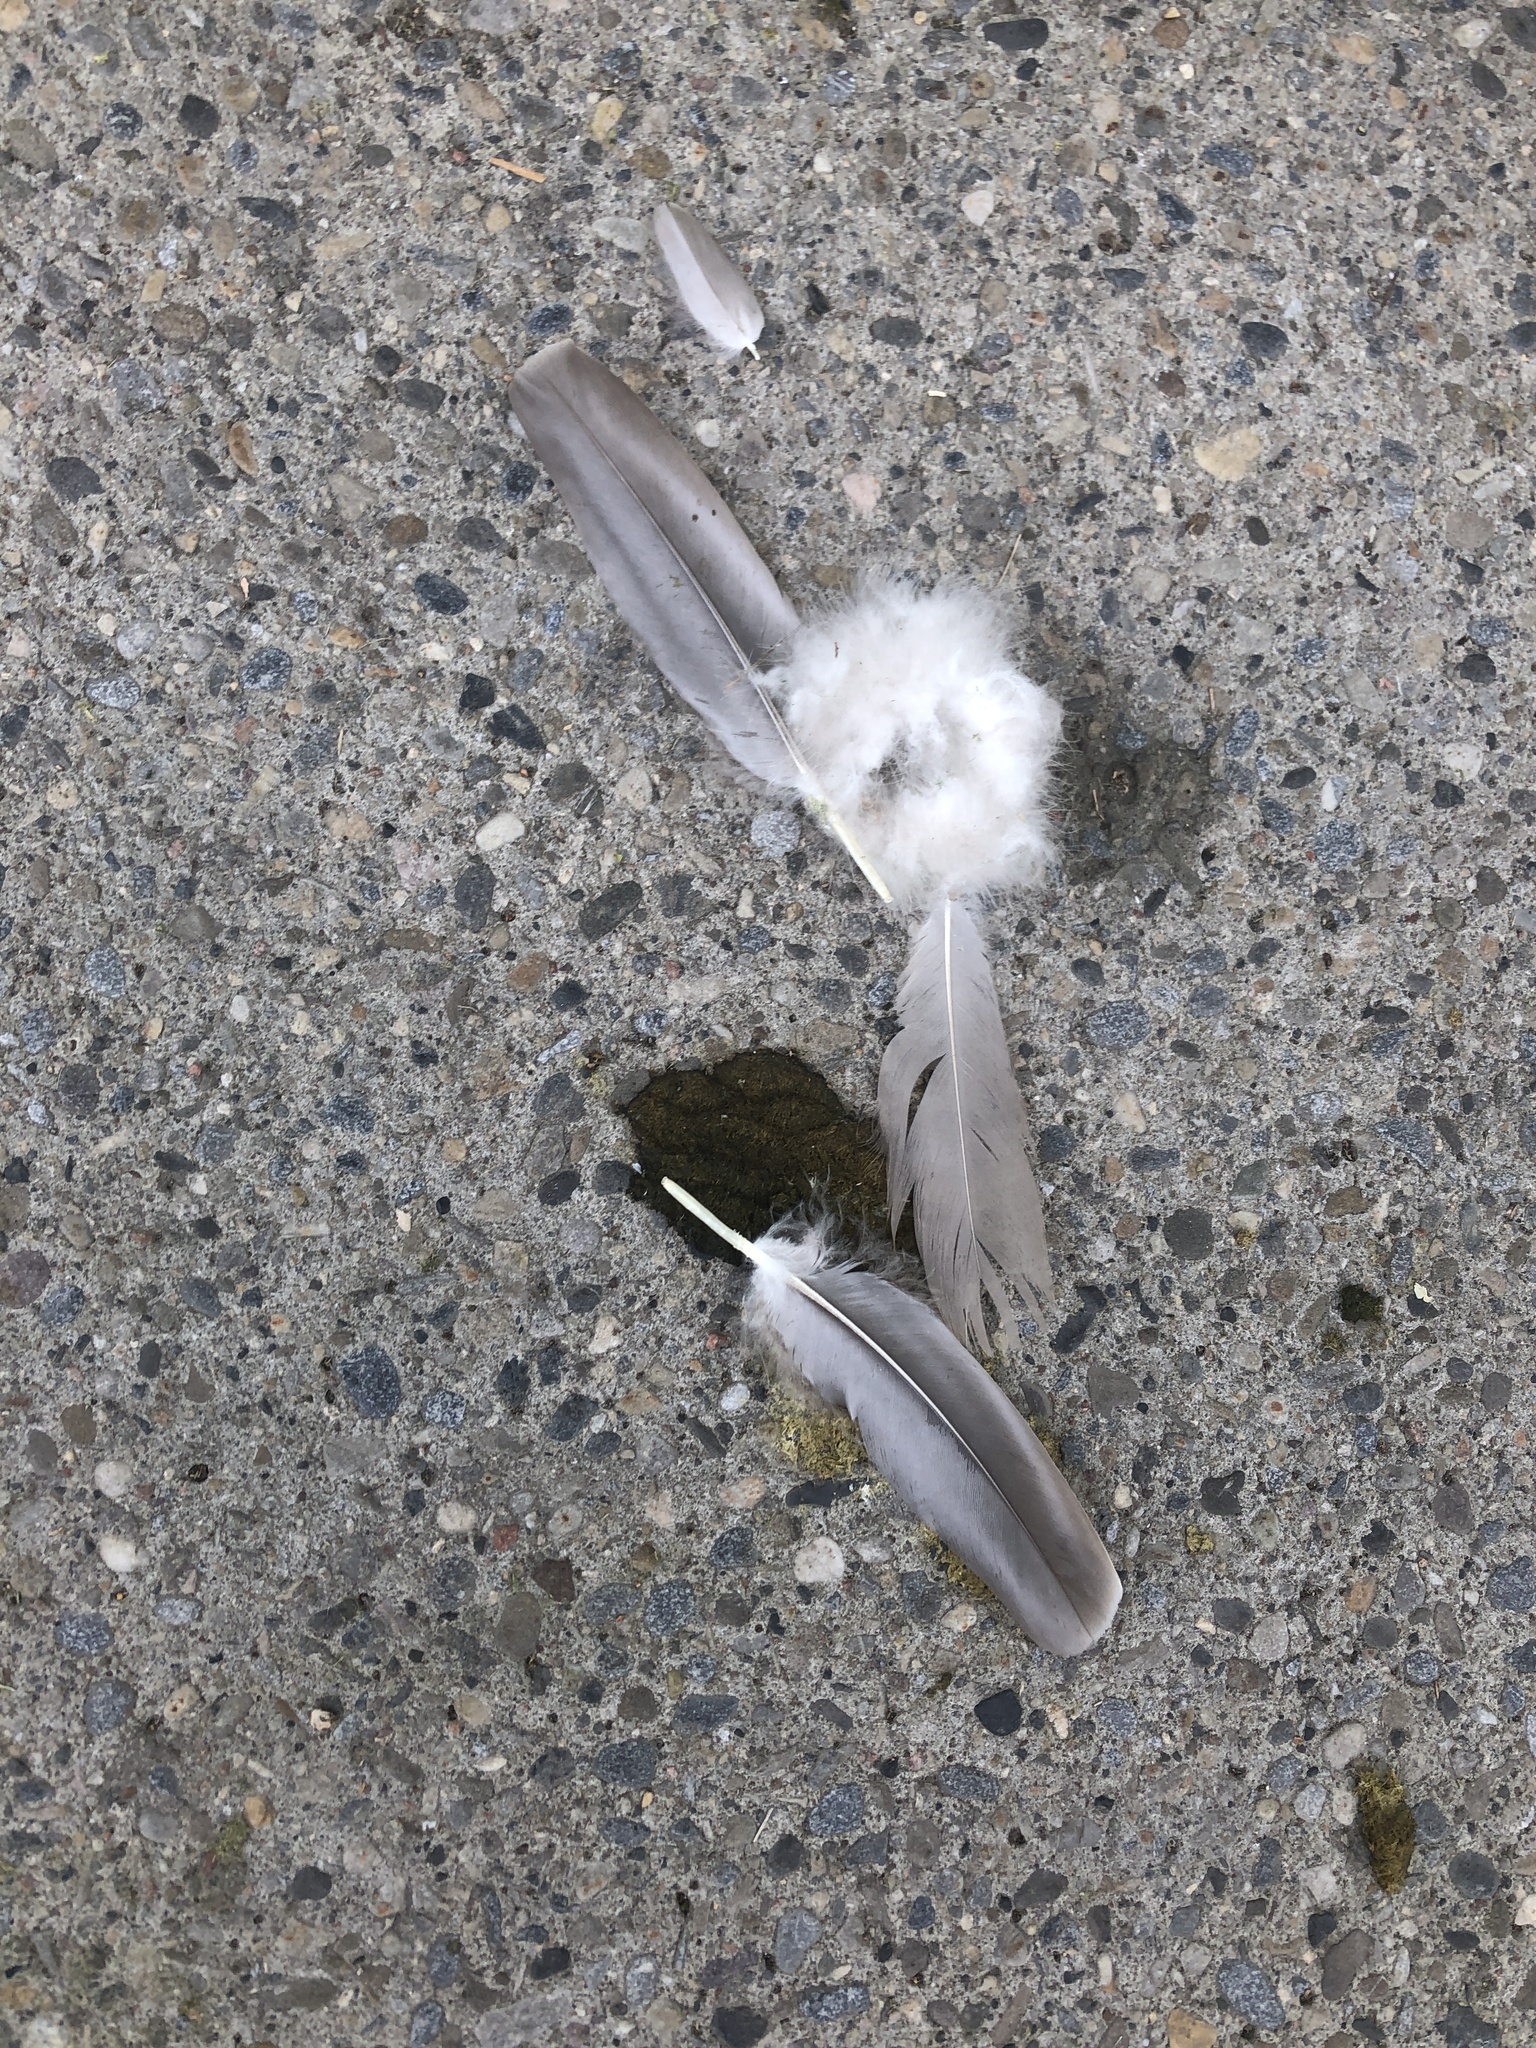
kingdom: Animalia
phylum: Chordata
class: Aves
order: Anseriformes
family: Anatidae
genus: Branta
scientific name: Branta canadensis
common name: Canada goose
